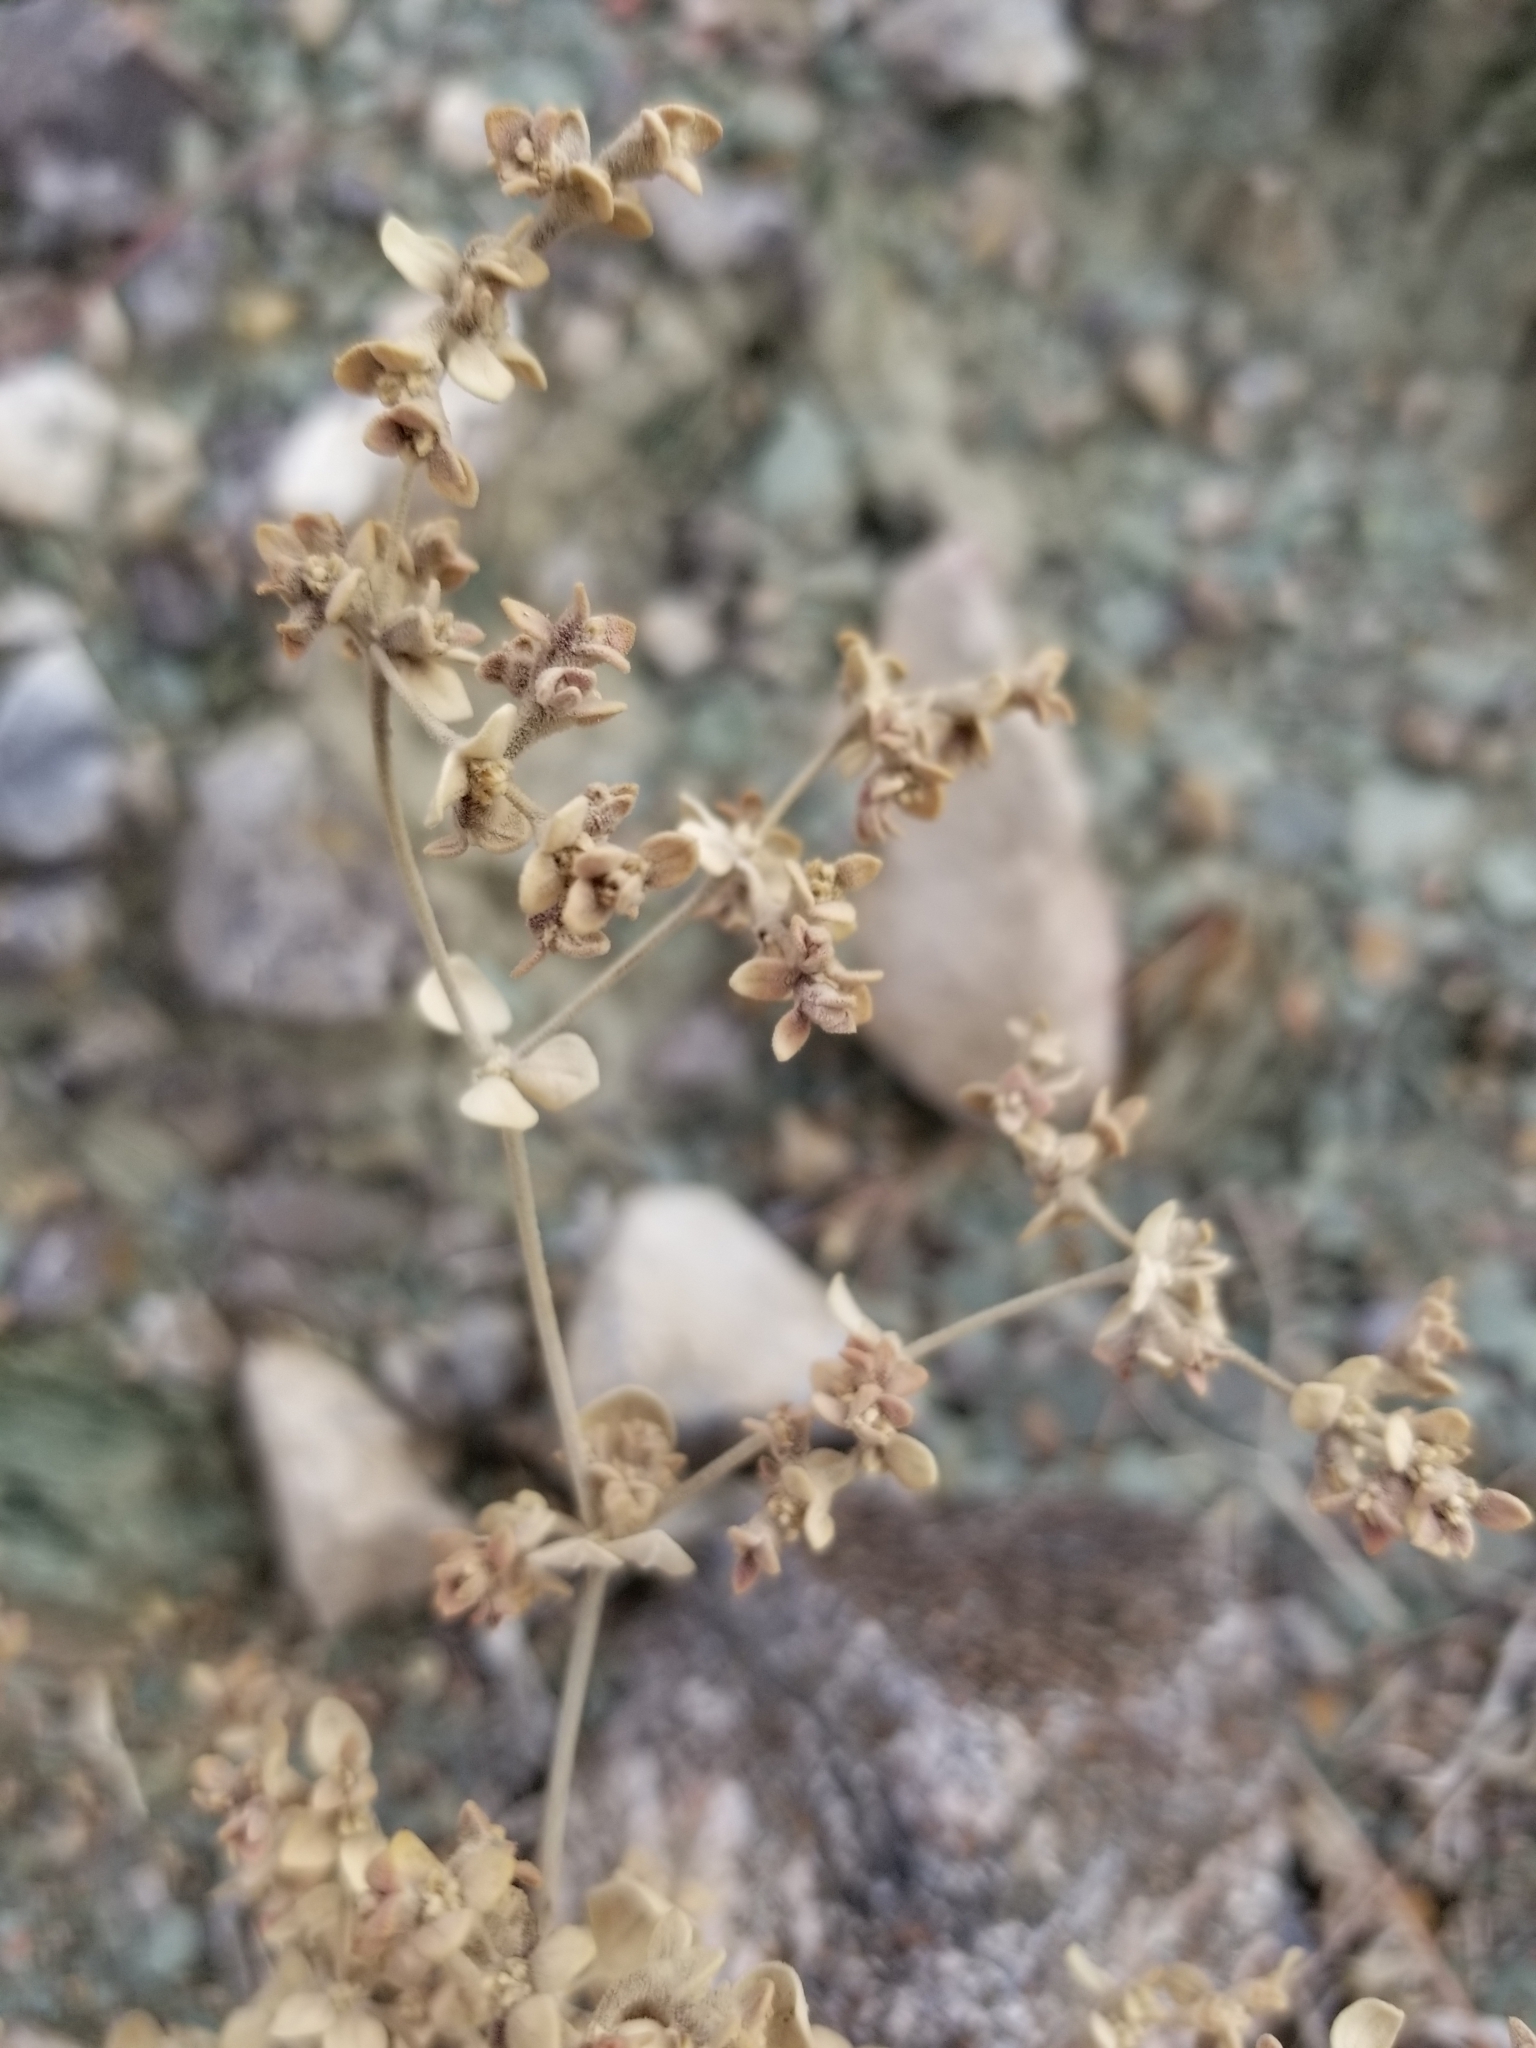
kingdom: Plantae
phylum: Tracheophyta
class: Magnoliopsida
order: Caryophyllales
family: Amaranthaceae
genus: Tidestromia
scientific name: Tidestromia suffruticosa
